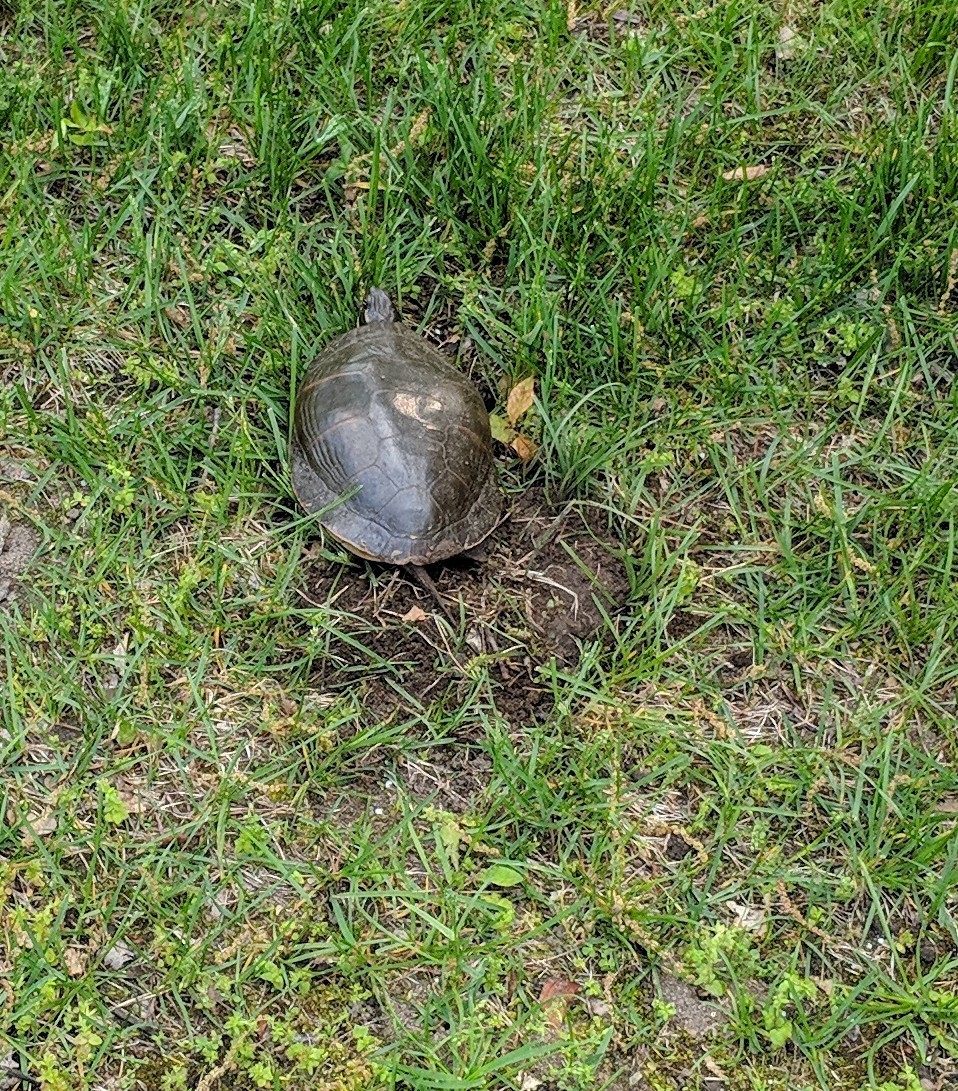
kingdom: Animalia
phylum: Chordata
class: Testudines
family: Emydidae
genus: Chrysemys
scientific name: Chrysemys picta
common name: Painted turtle
